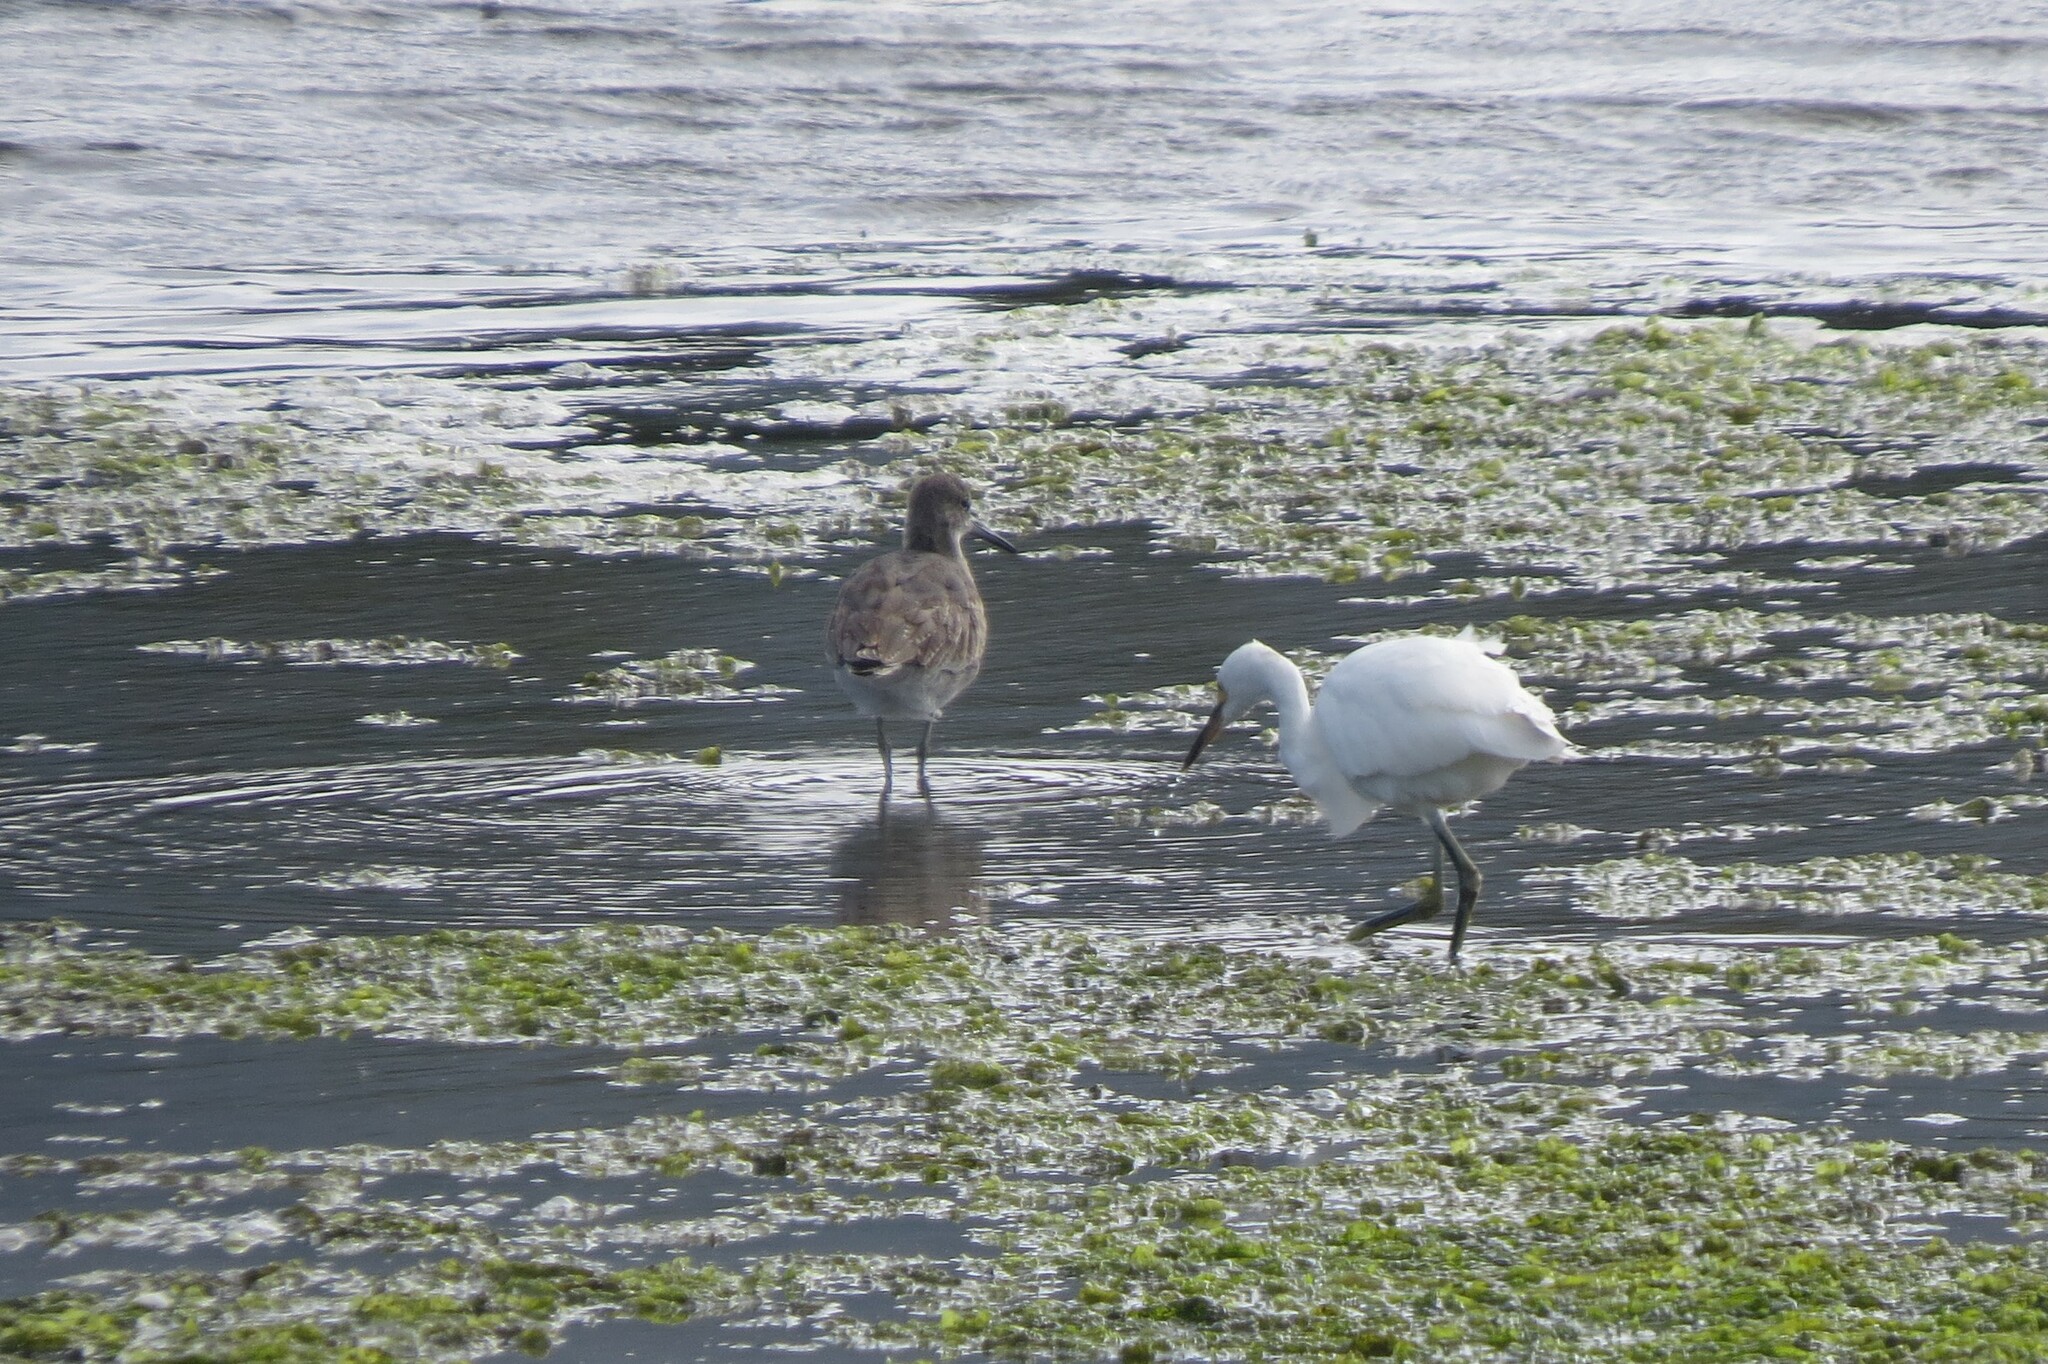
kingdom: Animalia
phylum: Chordata
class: Aves
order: Charadriiformes
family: Scolopacidae
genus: Tringa
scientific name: Tringa semipalmata
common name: Willet
